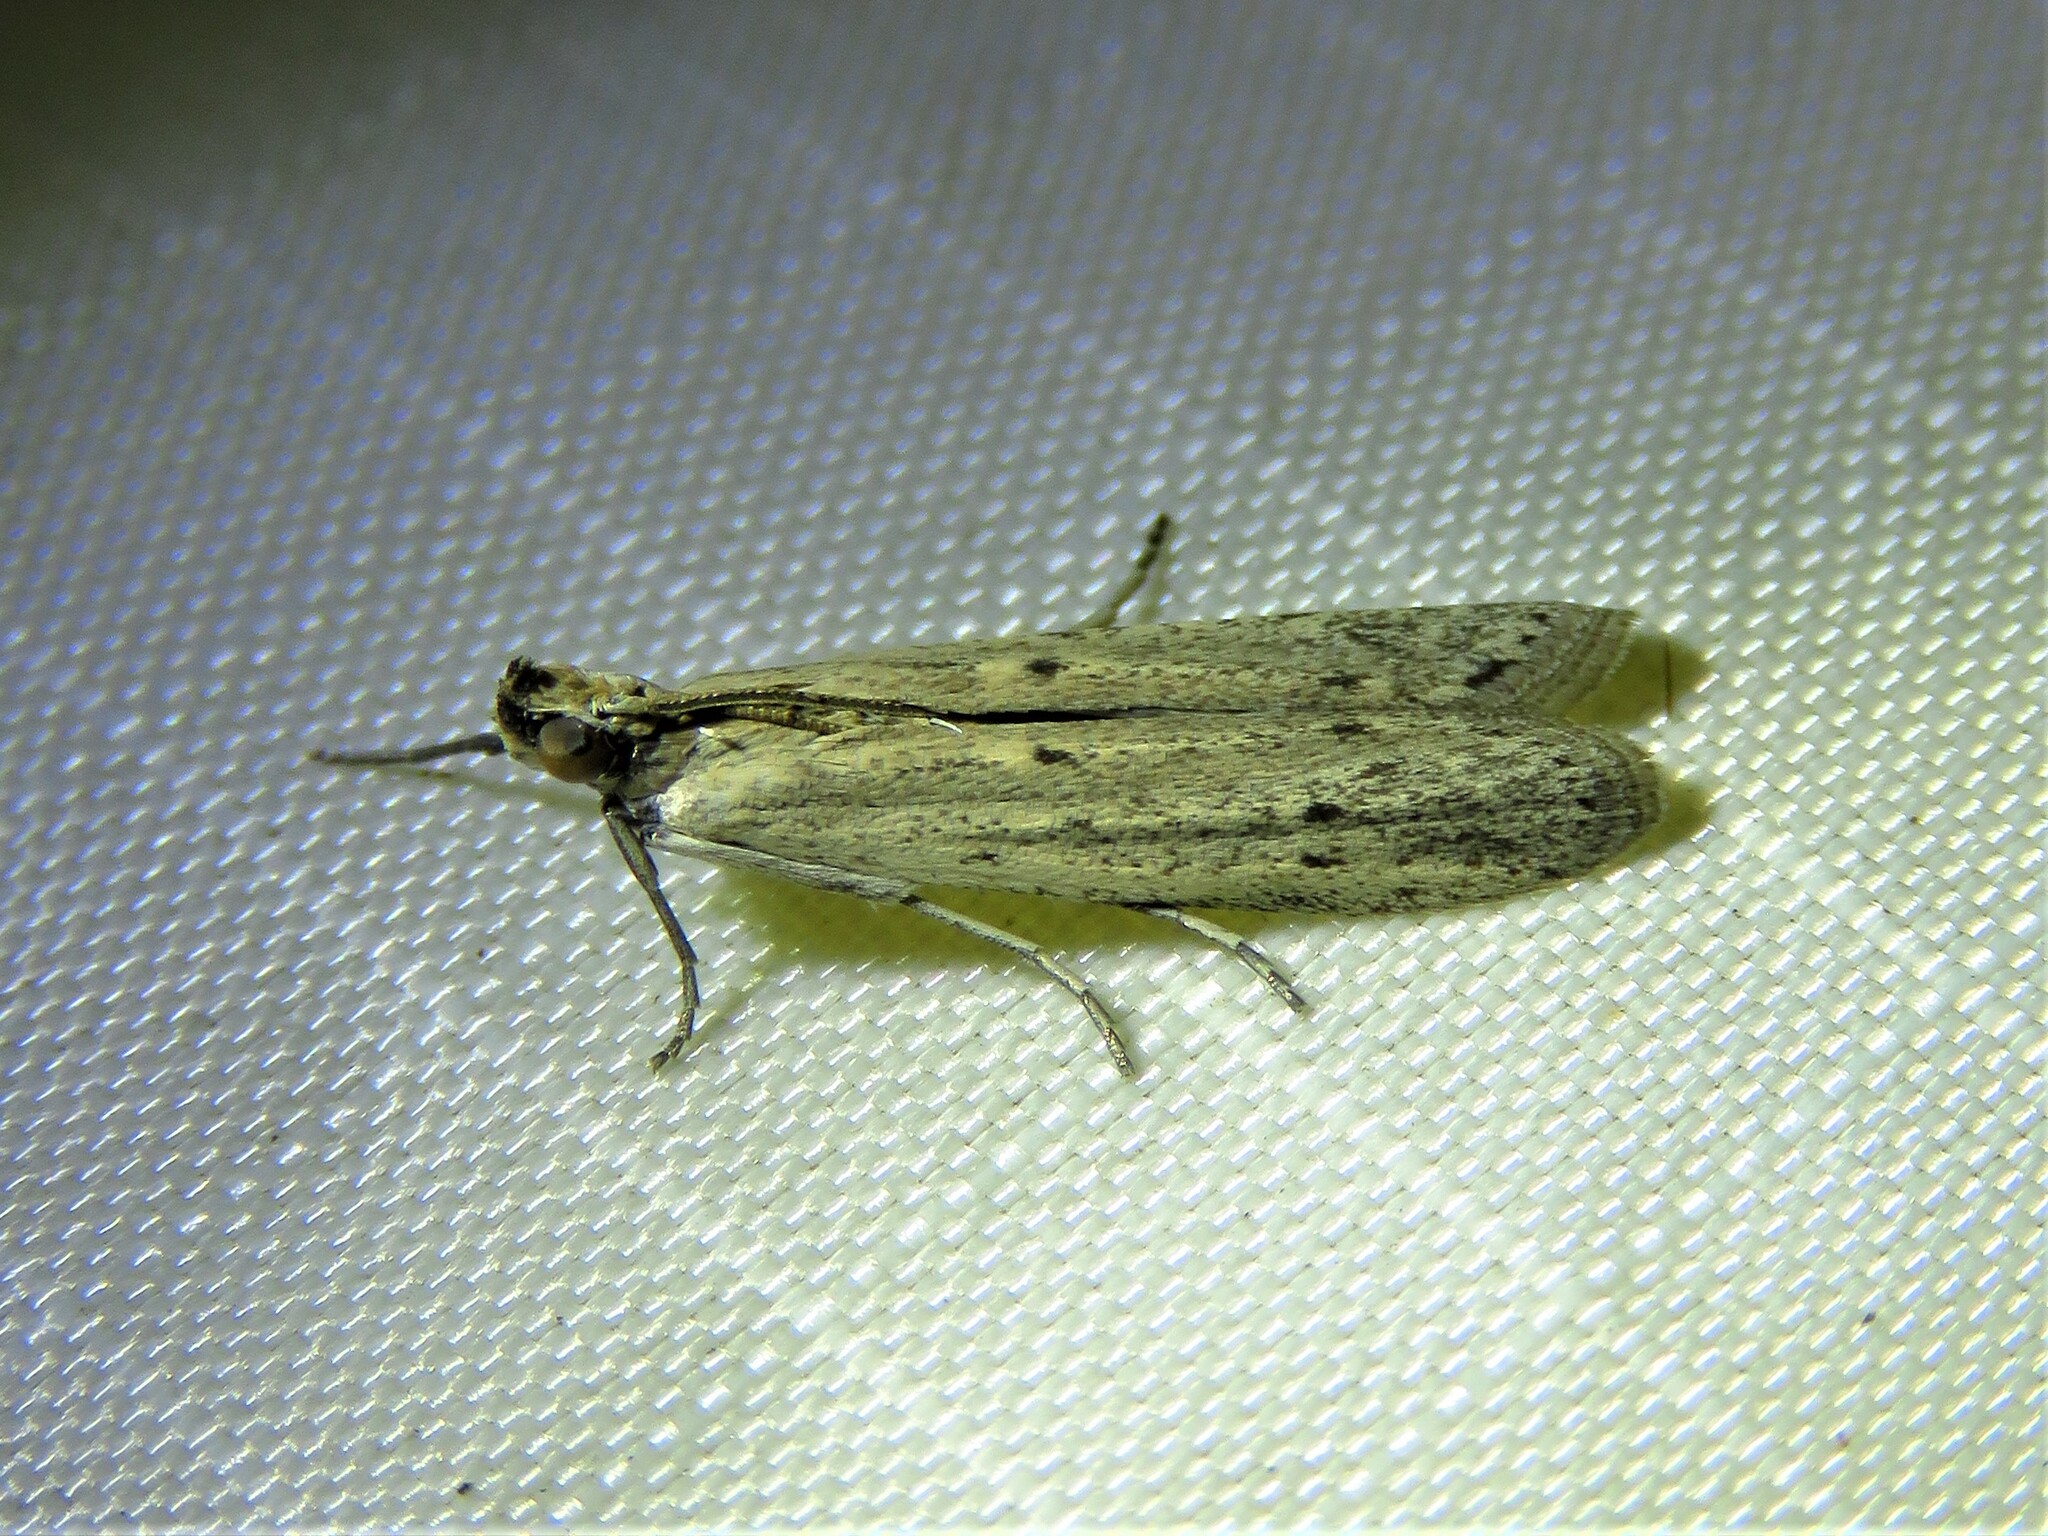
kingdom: Animalia
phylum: Arthropoda
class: Insecta
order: Lepidoptera
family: Pyralidae
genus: Homoeosoma
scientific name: Homoeosoma electella
